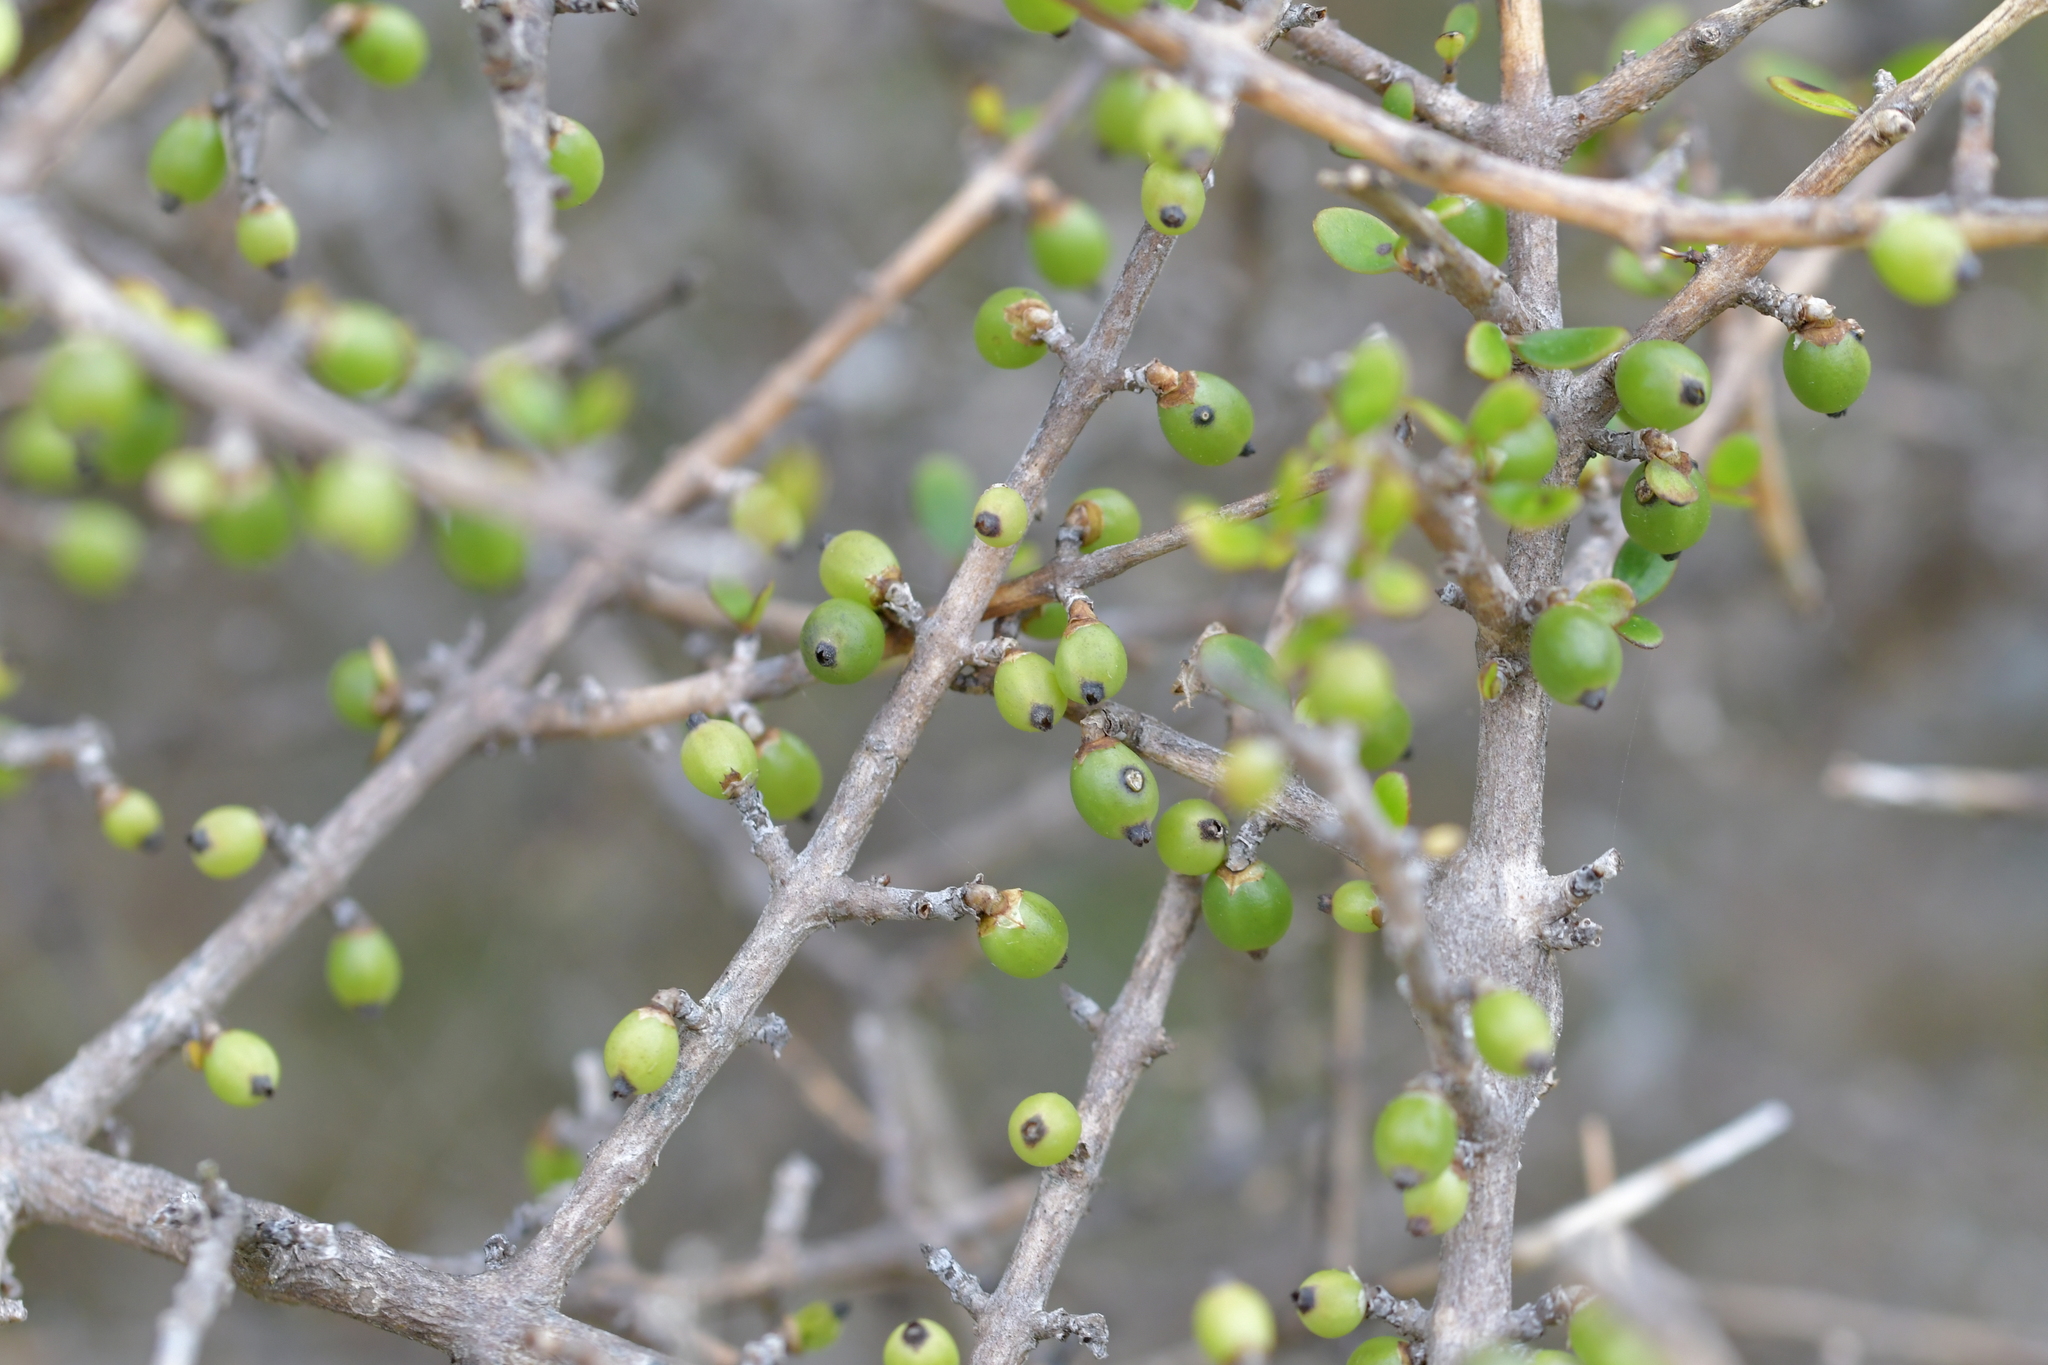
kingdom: Plantae
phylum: Tracheophyta
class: Magnoliopsida
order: Gentianales
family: Rubiaceae
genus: Coprosma
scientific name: Coprosma propinqua
